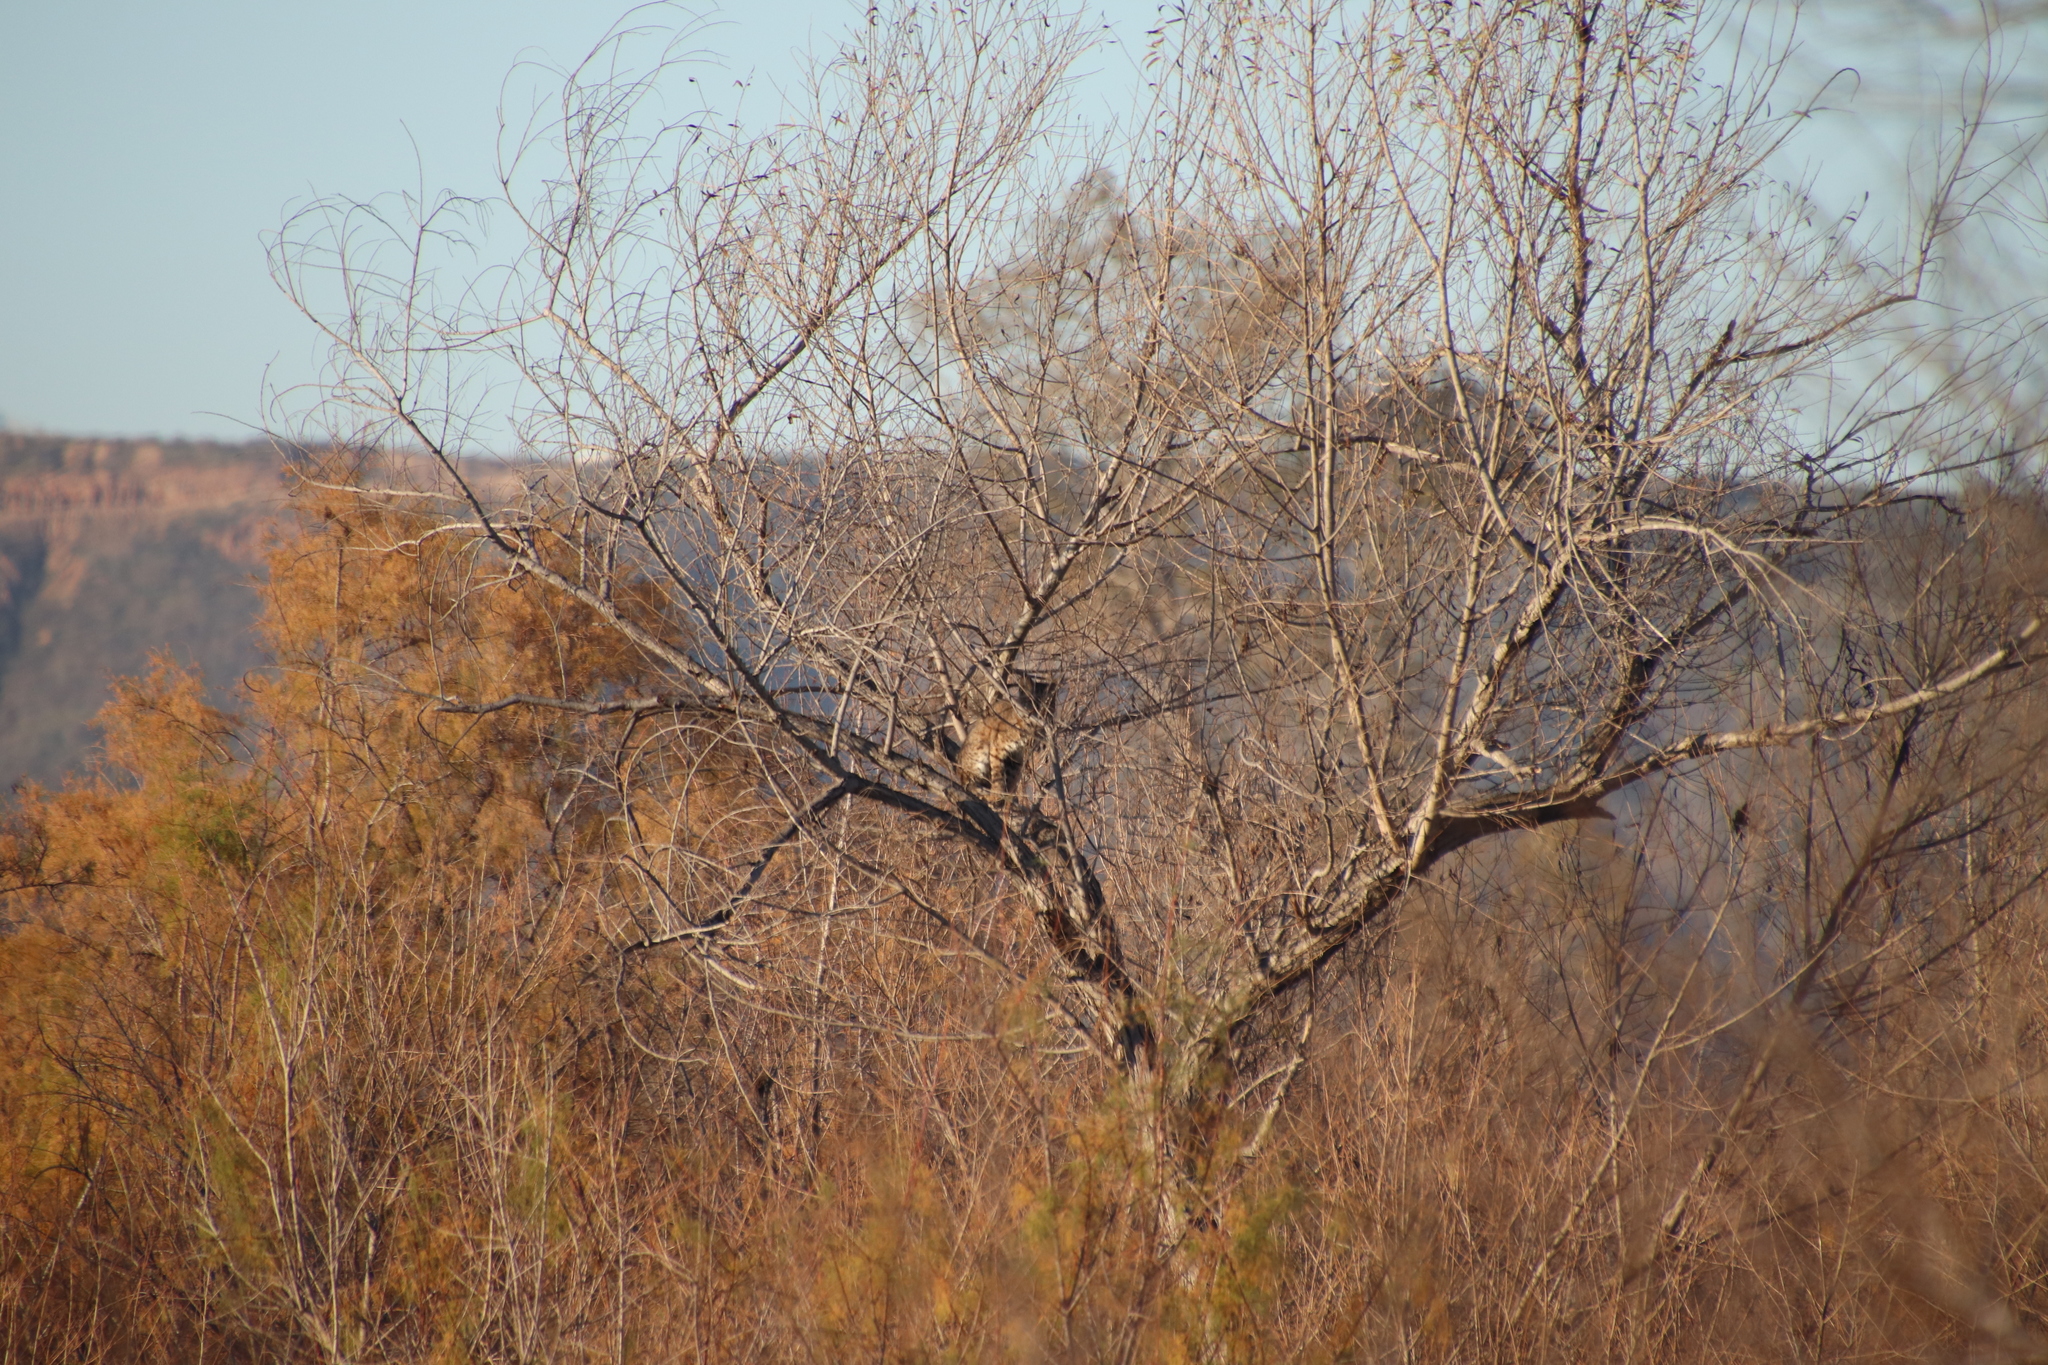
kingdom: Animalia
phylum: Chordata
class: Mammalia
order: Carnivora
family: Felidae
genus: Lynx
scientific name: Lynx rufus
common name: Bobcat
